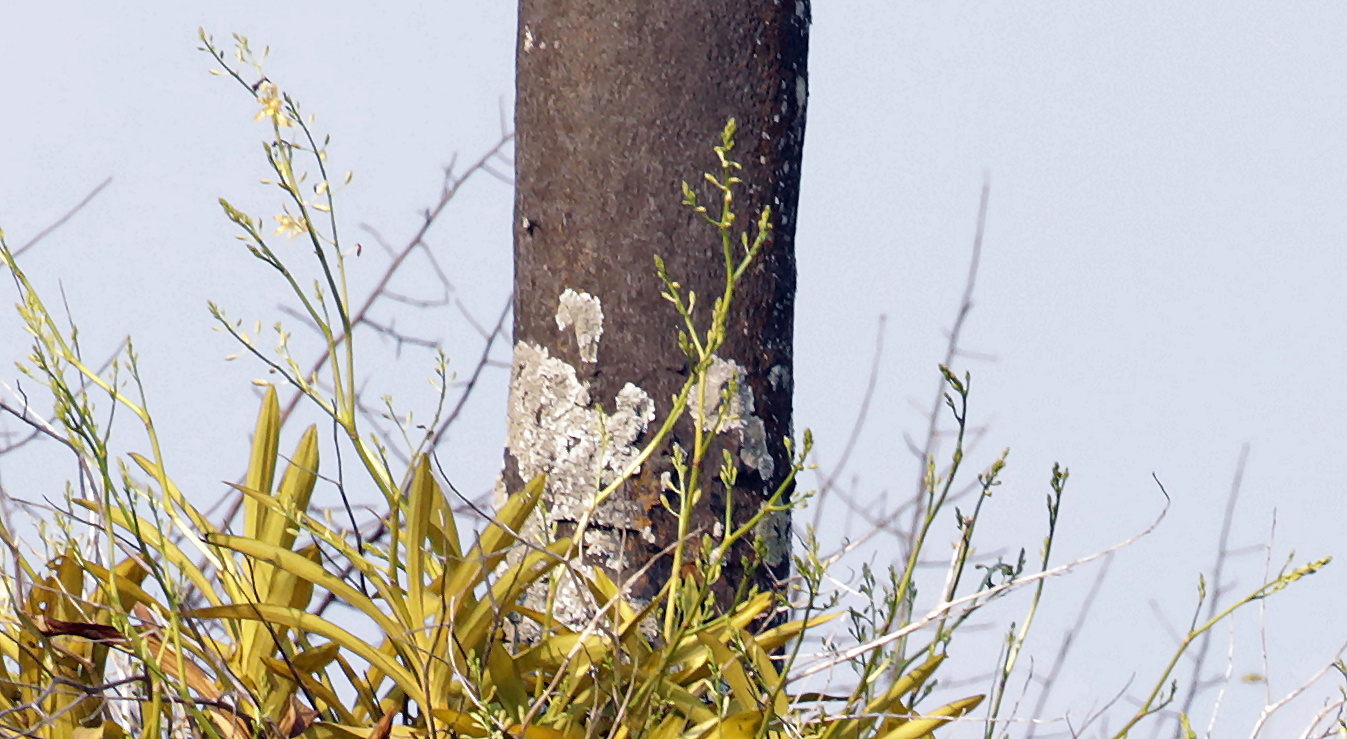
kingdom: Plantae
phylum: Tracheophyta
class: Liliopsida
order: Asparagales
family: Orchidaceae
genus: Ansellia
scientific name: Ansellia africana
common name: African ansellia
